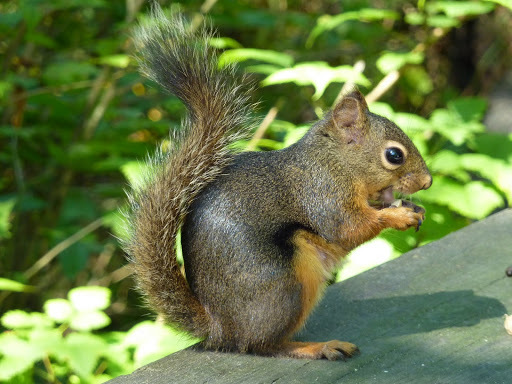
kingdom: Animalia
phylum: Chordata
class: Mammalia
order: Rodentia
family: Sciuridae
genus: Tamiasciurus
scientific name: Tamiasciurus douglasii
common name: Douglas's squirrel
